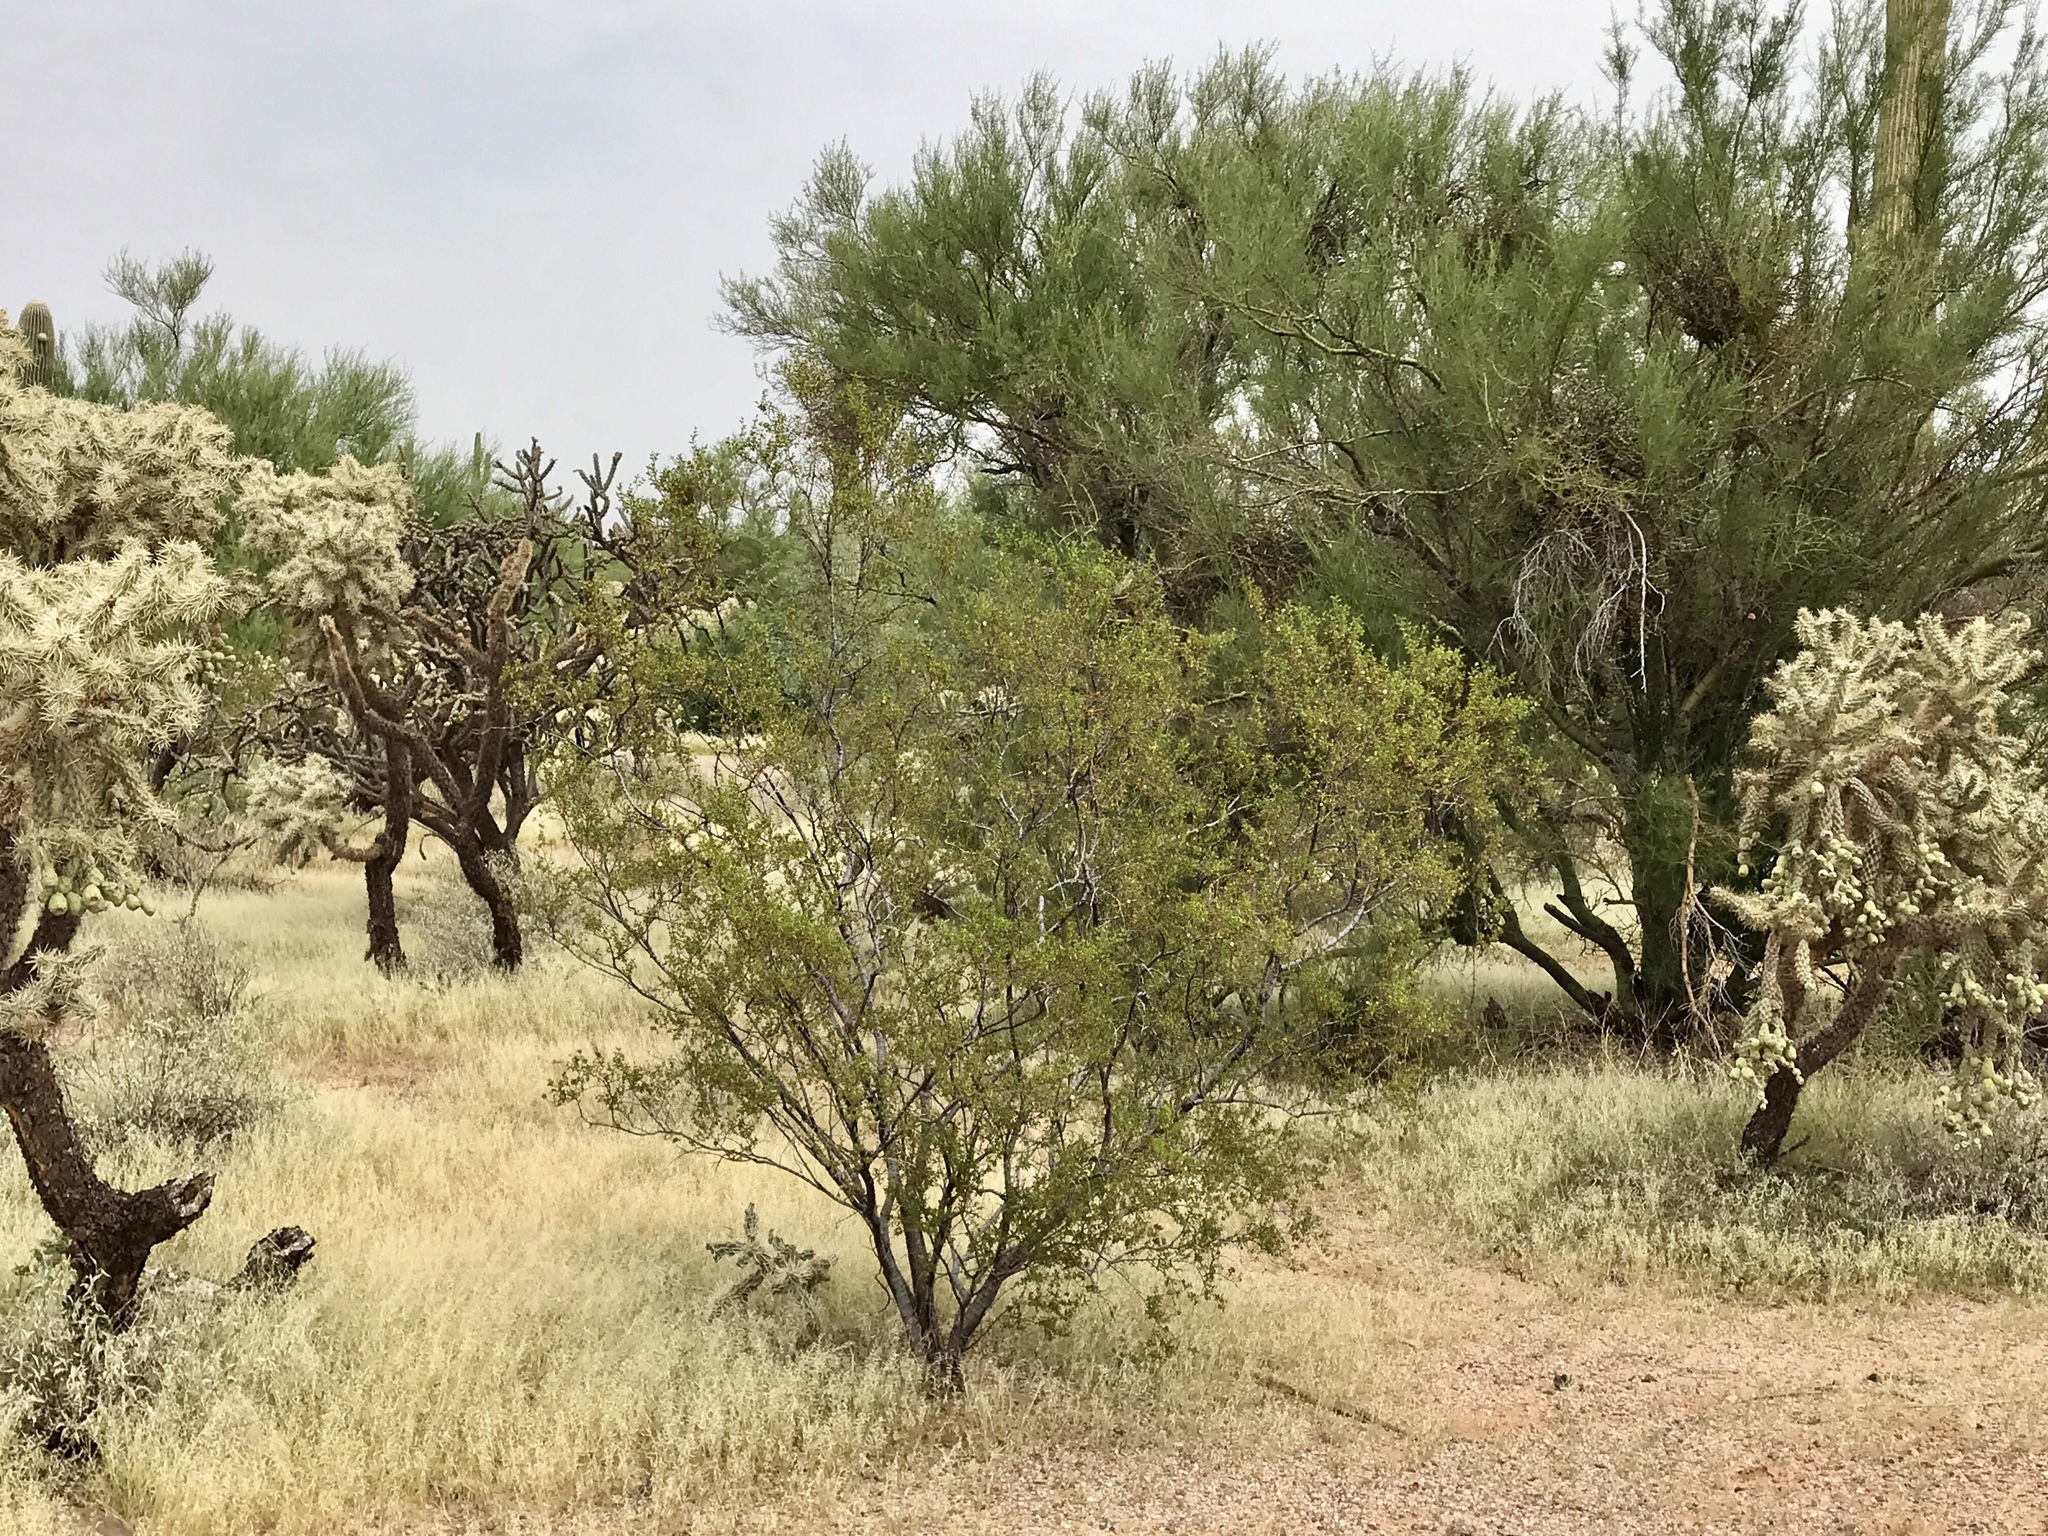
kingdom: Plantae
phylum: Tracheophyta
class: Magnoliopsida
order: Zygophyllales
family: Zygophyllaceae
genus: Larrea
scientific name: Larrea tridentata
